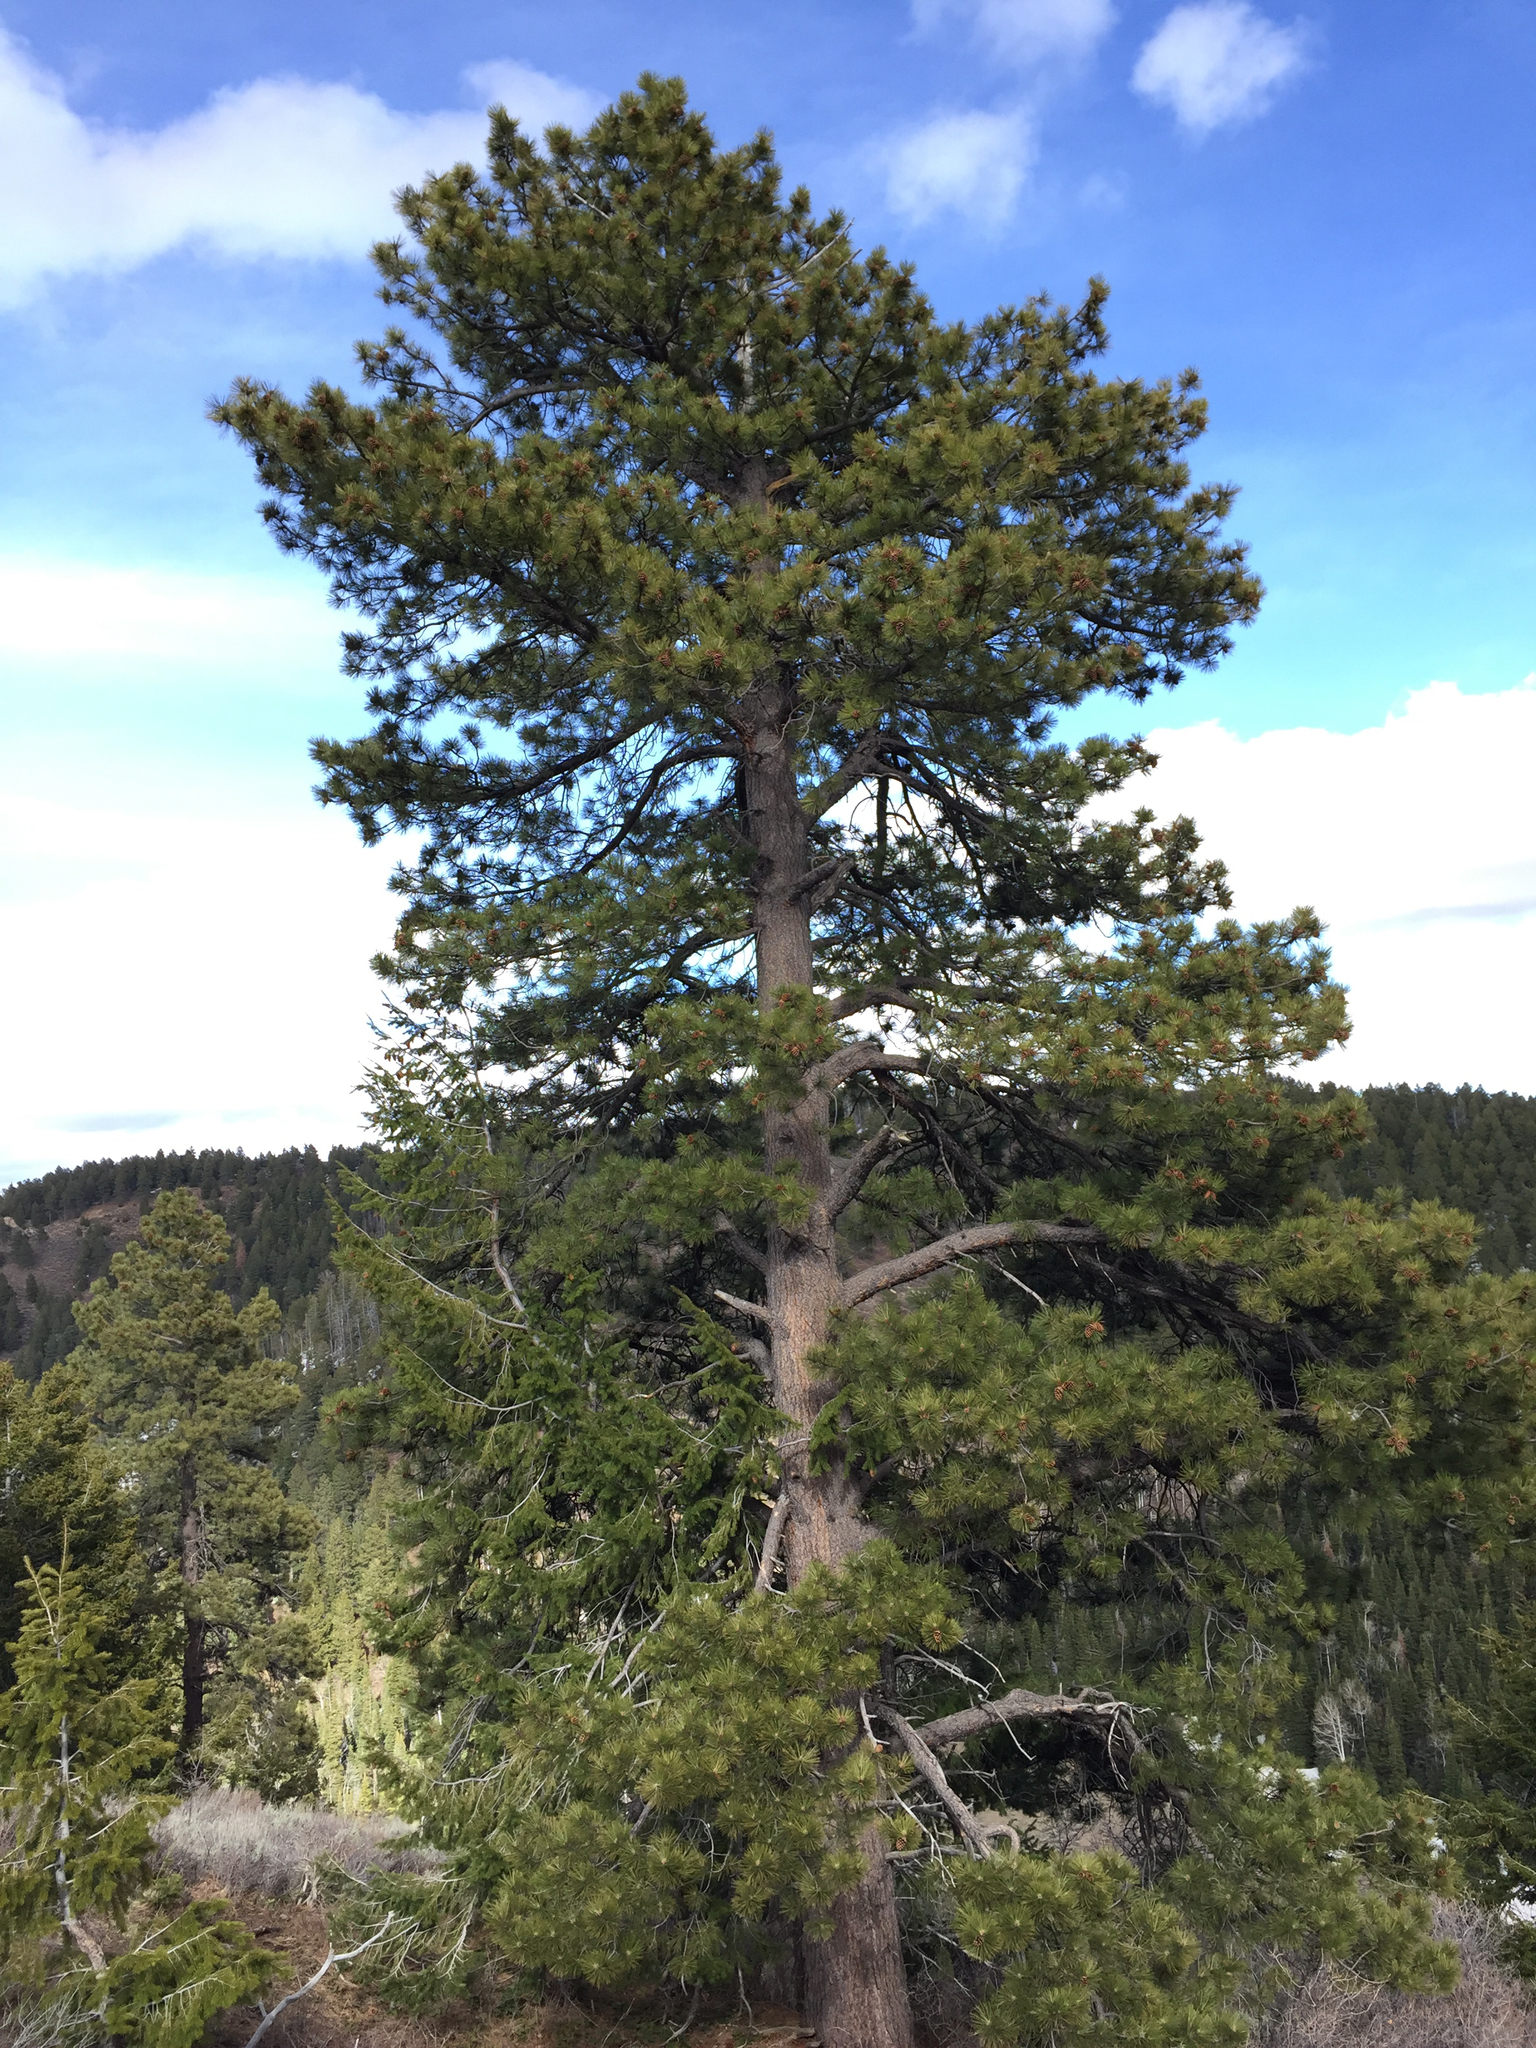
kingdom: Plantae
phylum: Tracheophyta
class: Pinopsida
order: Pinales
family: Pinaceae
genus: Pinus
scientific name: Pinus ponderosa
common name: Western yellow-pine
